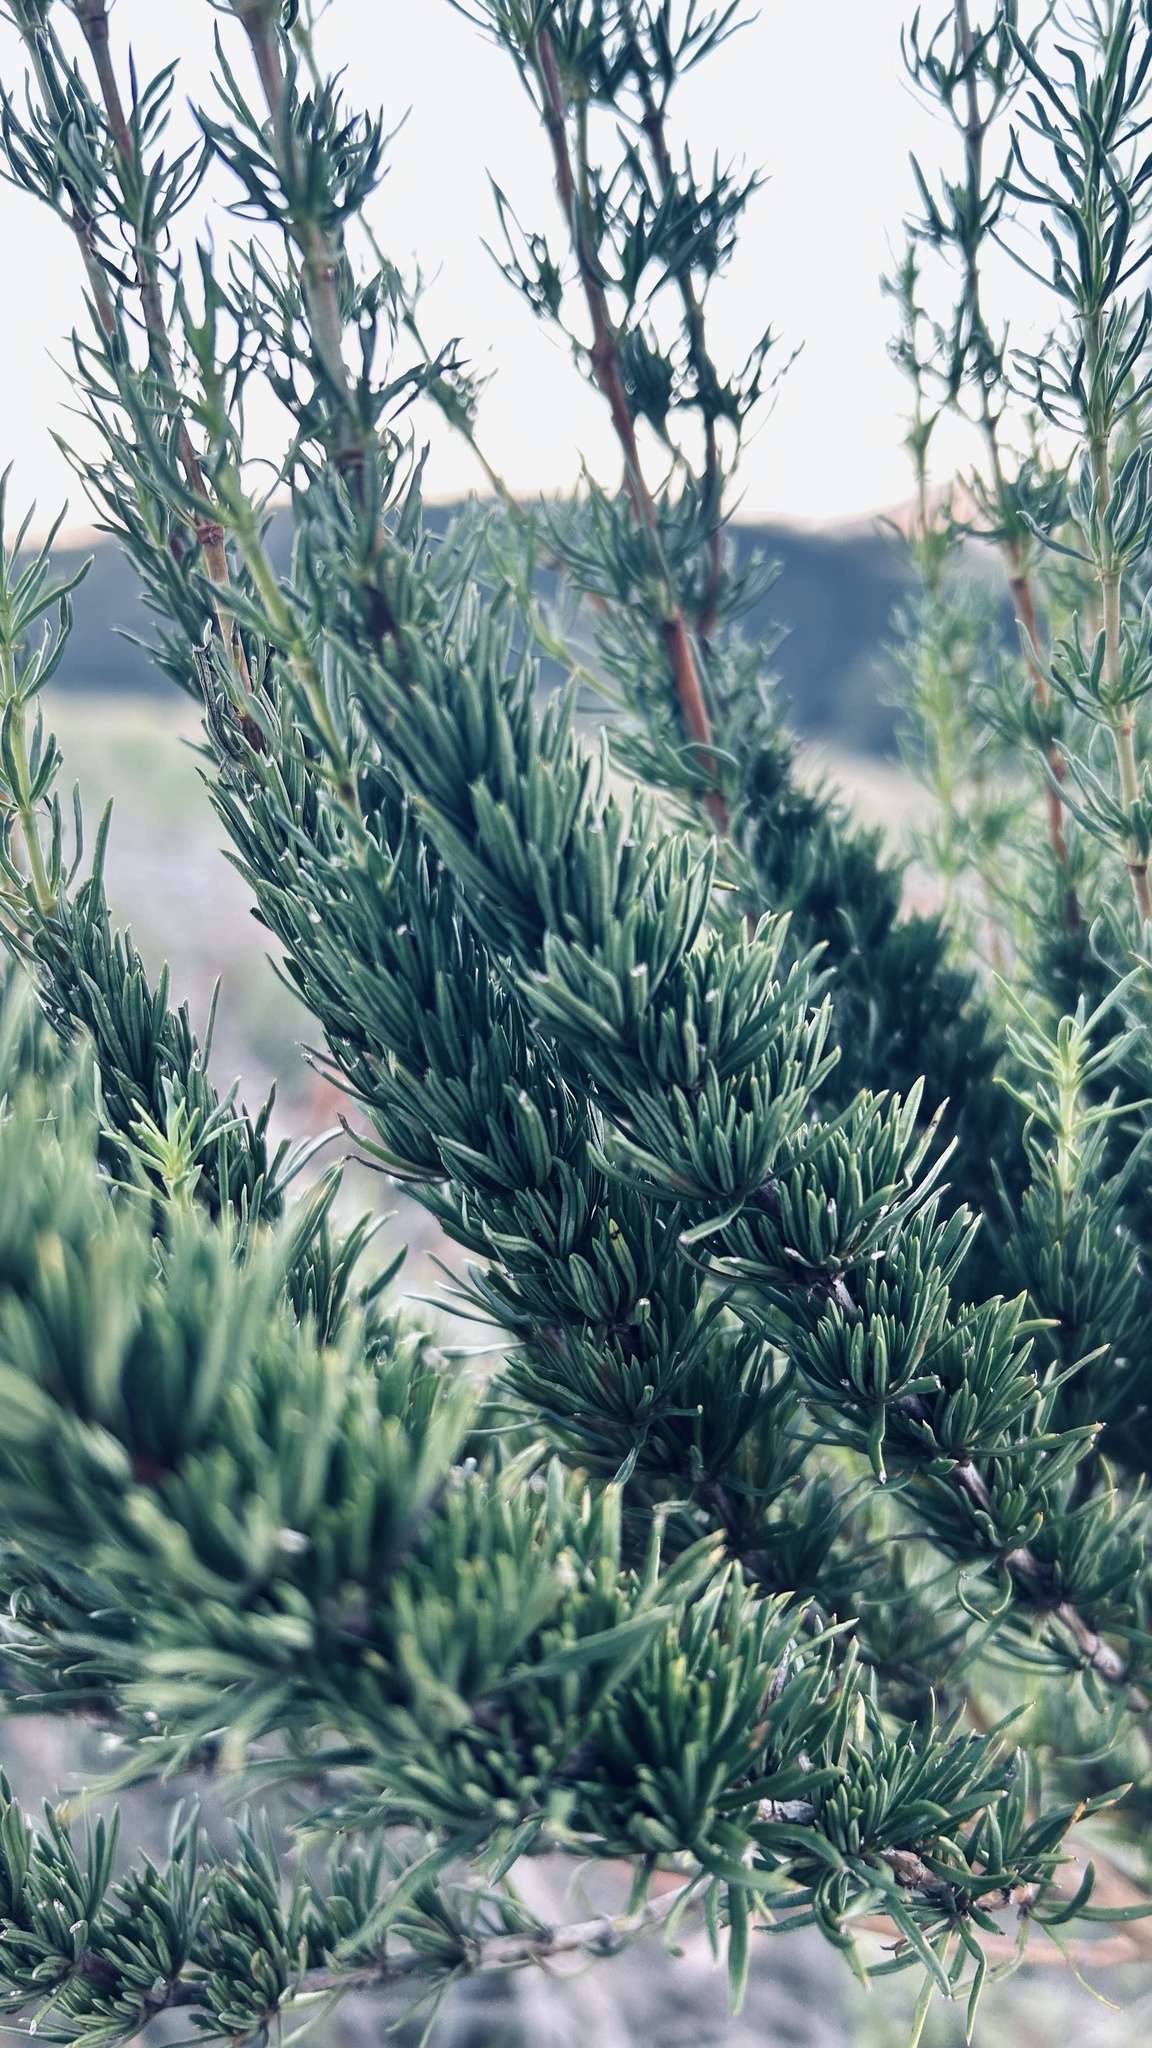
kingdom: Plantae
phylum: Tracheophyta
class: Magnoliopsida
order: Gentianales
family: Rubiaceae
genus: Anthospermum
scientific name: Anthospermum aethiopicum
